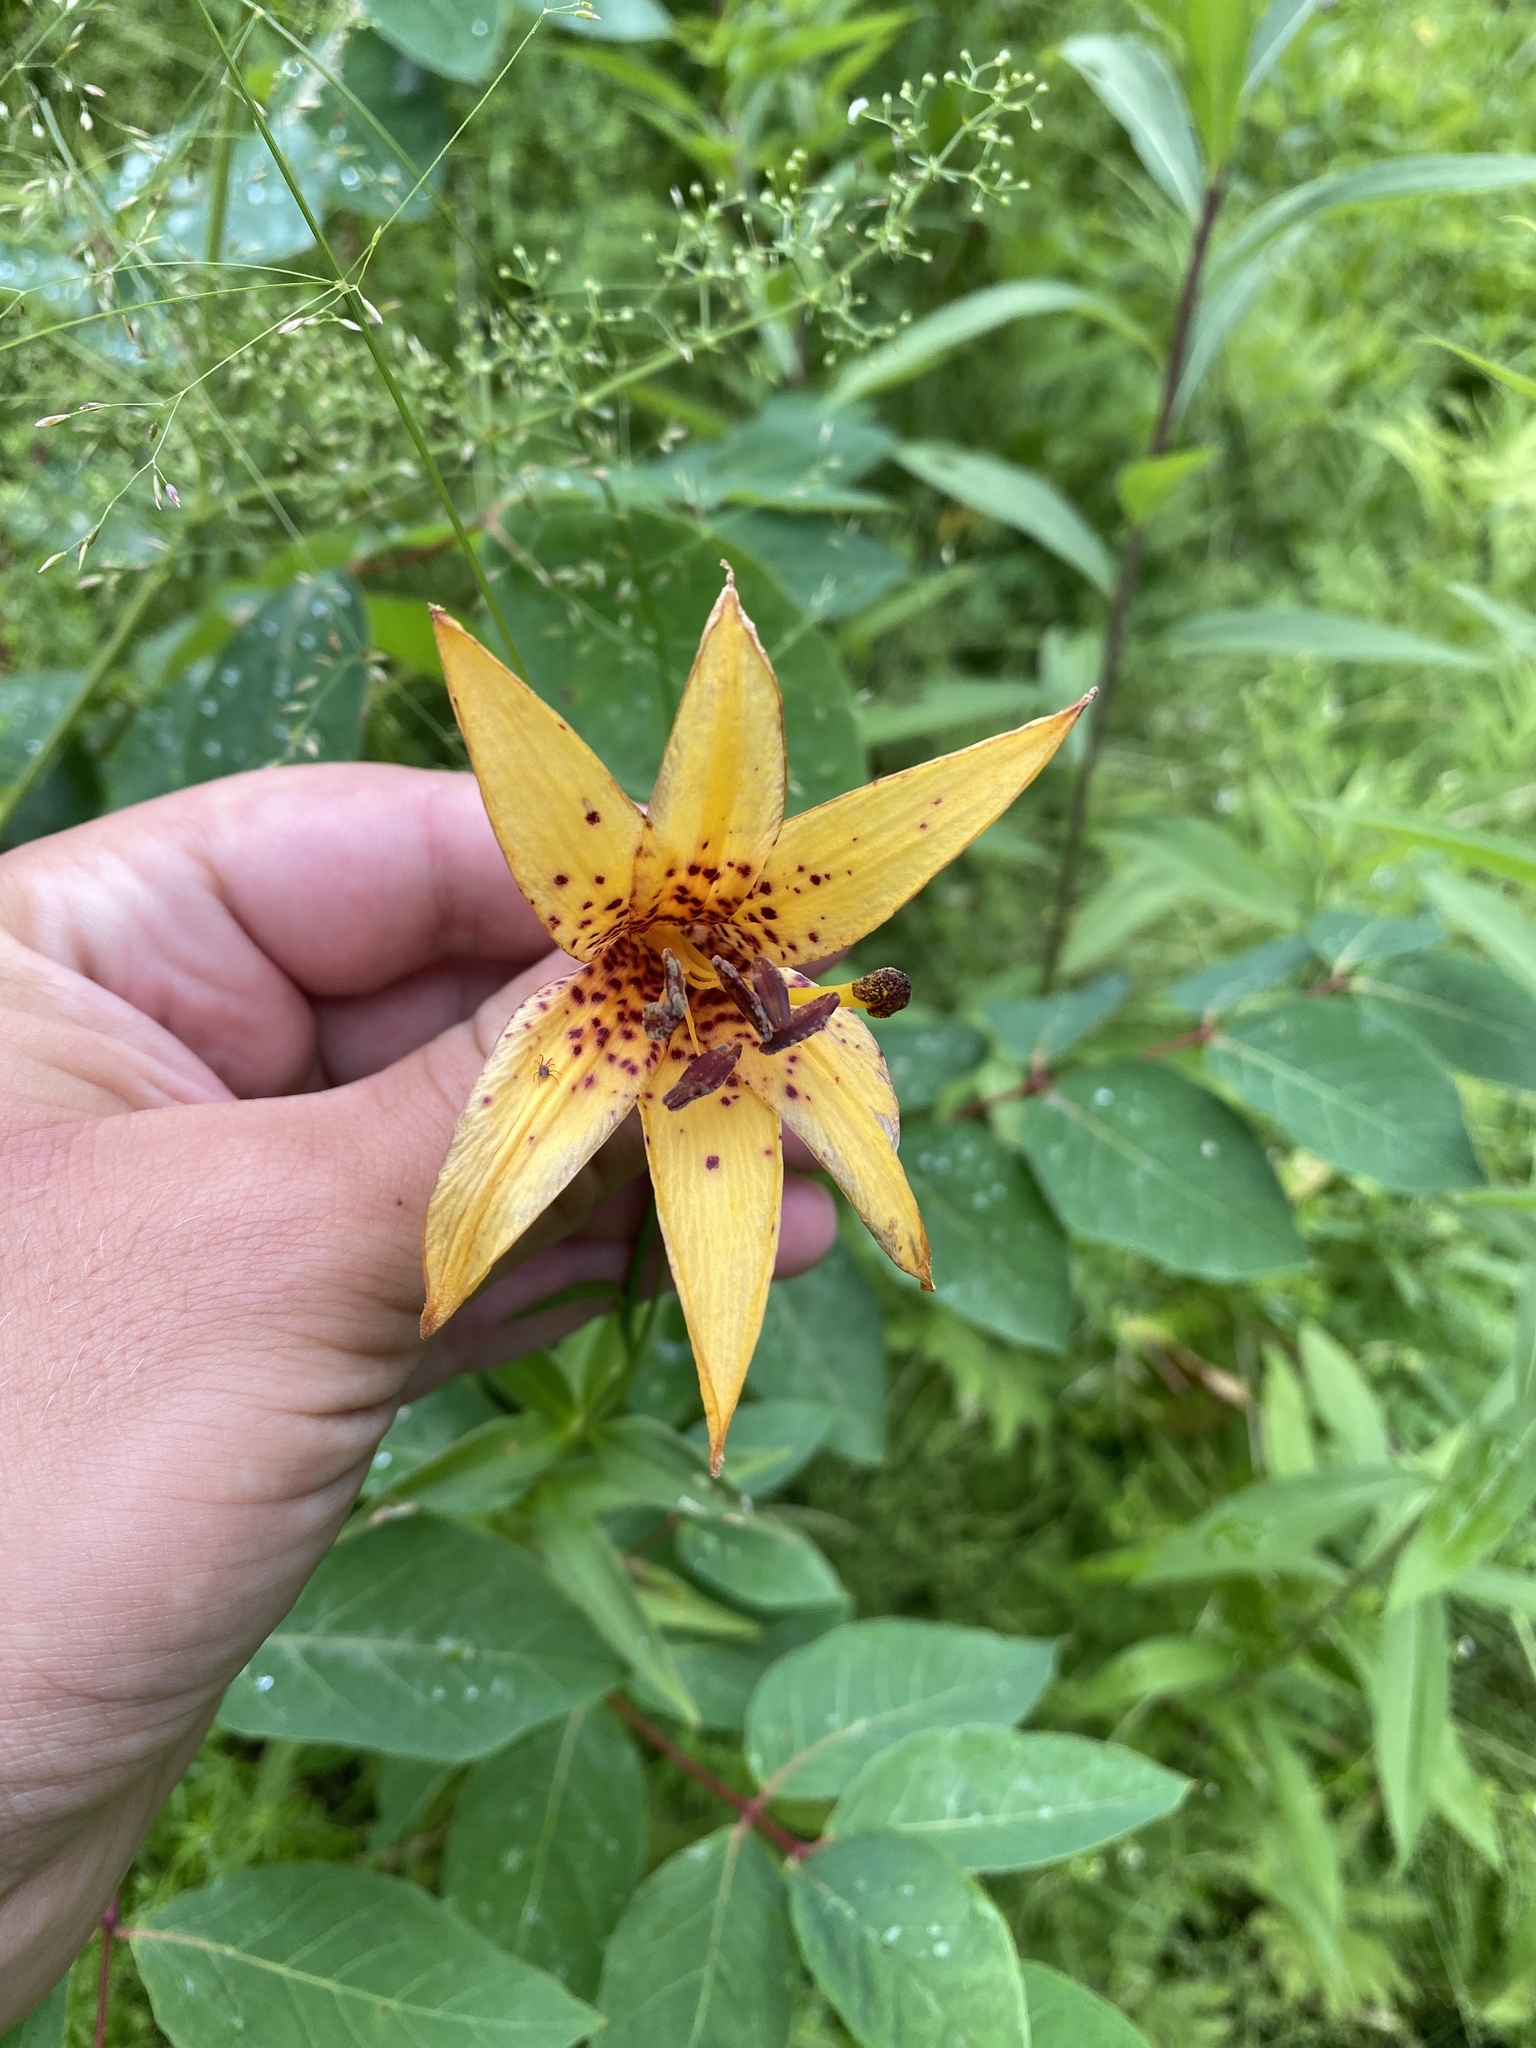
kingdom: Plantae
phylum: Tracheophyta
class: Liliopsida
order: Liliales
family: Liliaceae
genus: Lilium
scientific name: Lilium canadense
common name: Canada lily
